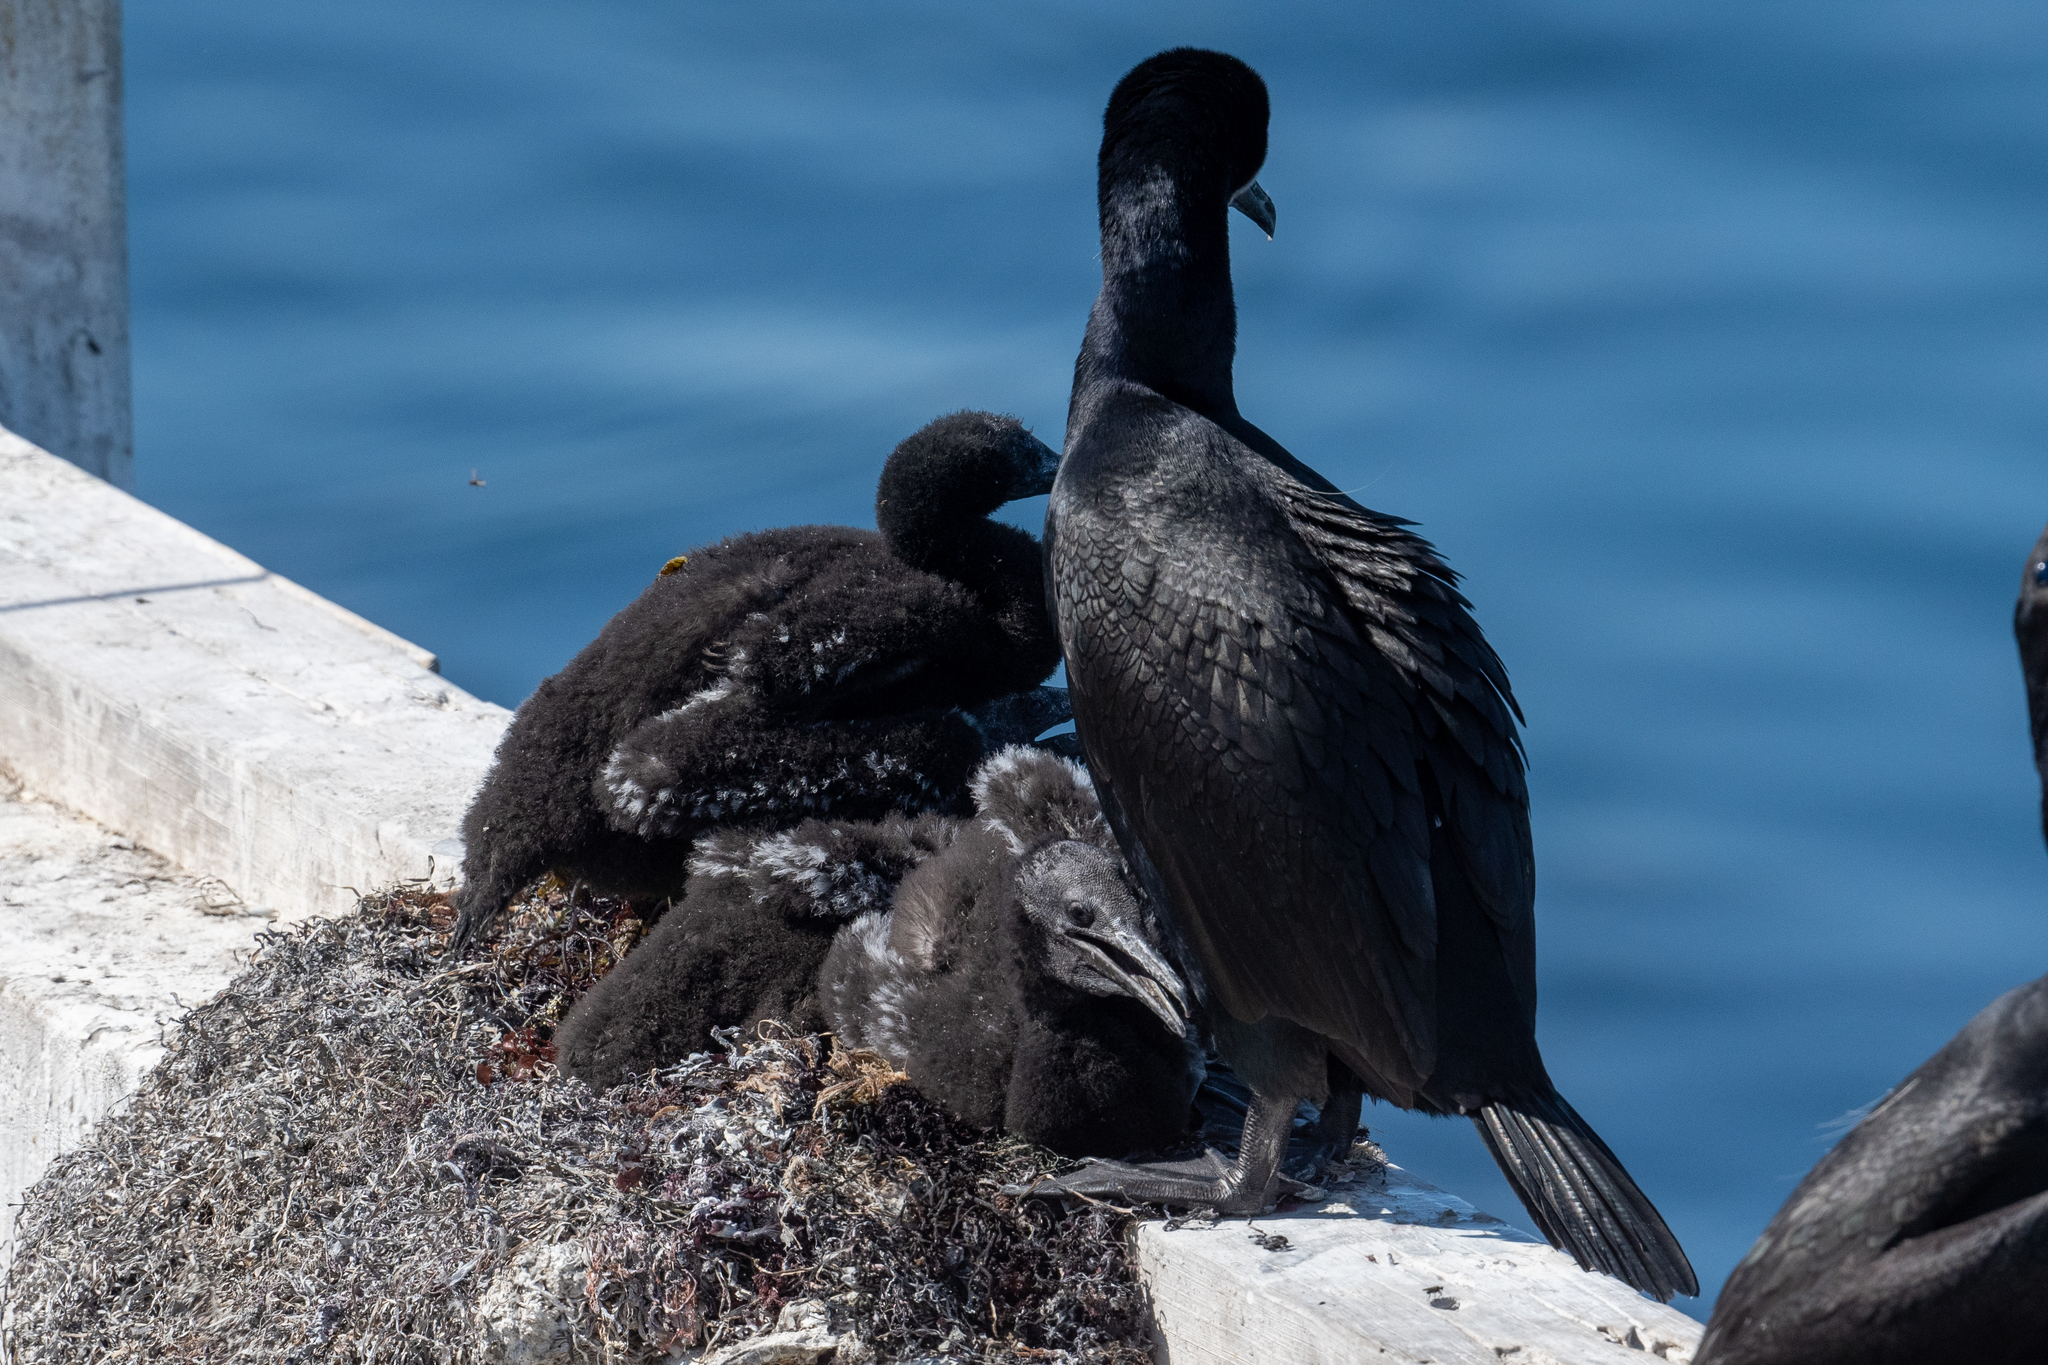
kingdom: Animalia
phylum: Chordata
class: Aves
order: Suliformes
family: Phalacrocoracidae
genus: Urile
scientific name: Urile penicillatus
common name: Brandt's cormorant
